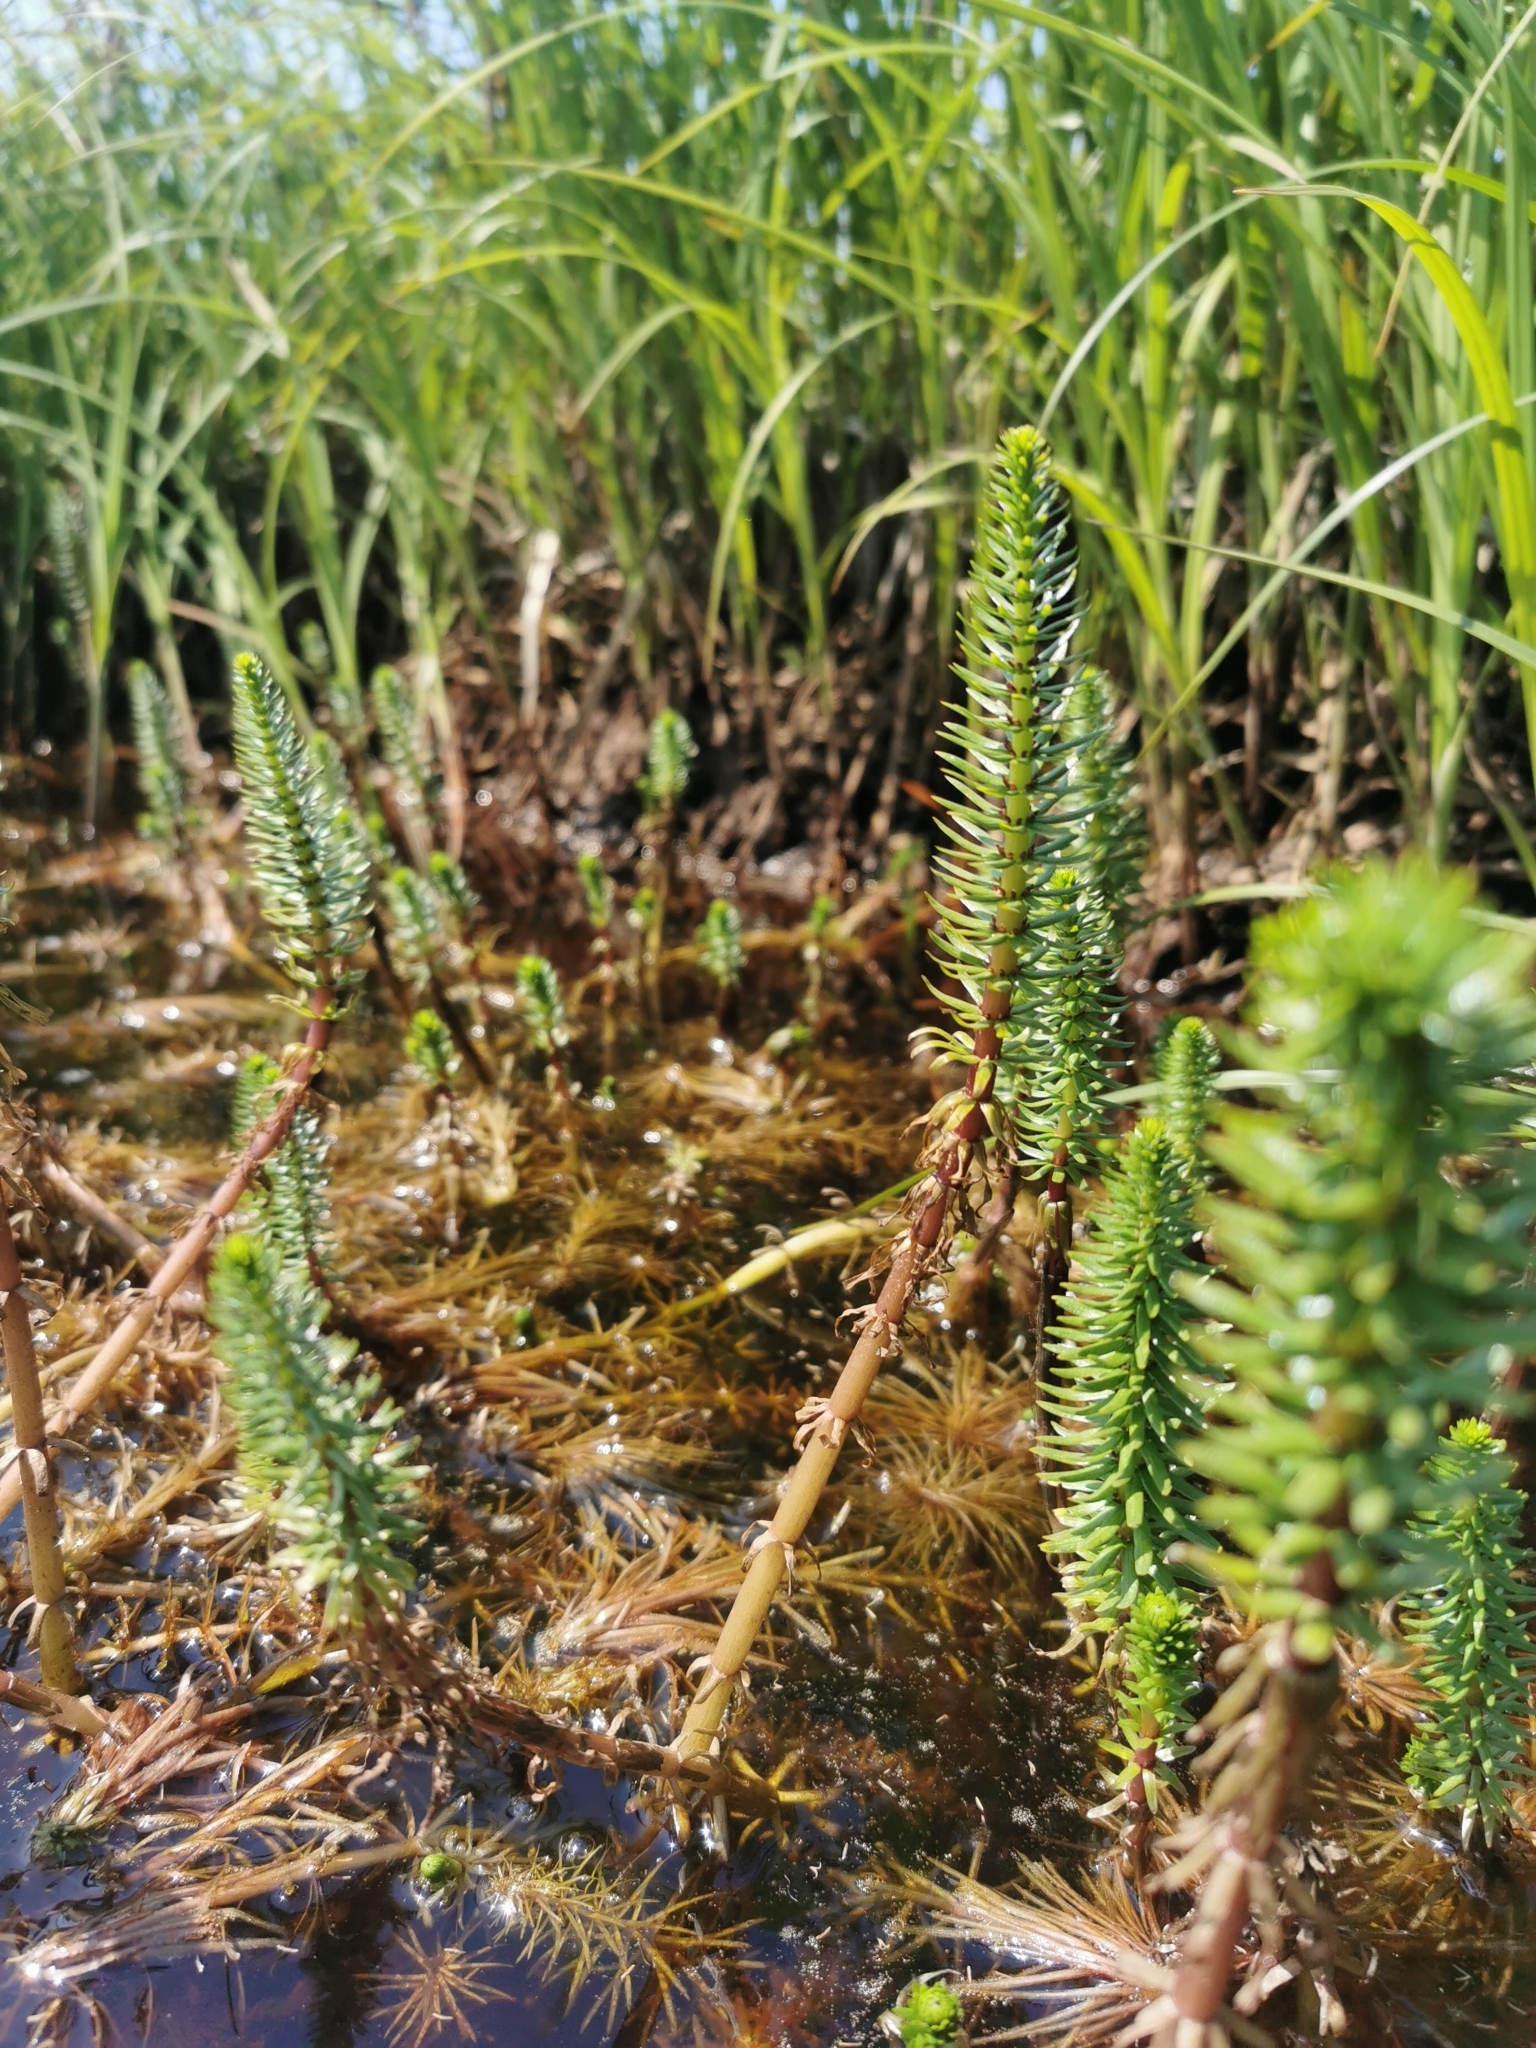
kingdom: Plantae
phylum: Tracheophyta
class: Magnoliopsida
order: Lamiales
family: Plantaginaceae
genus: Hippuris
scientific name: Hippuris vulgaris
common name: Mare's-tail
